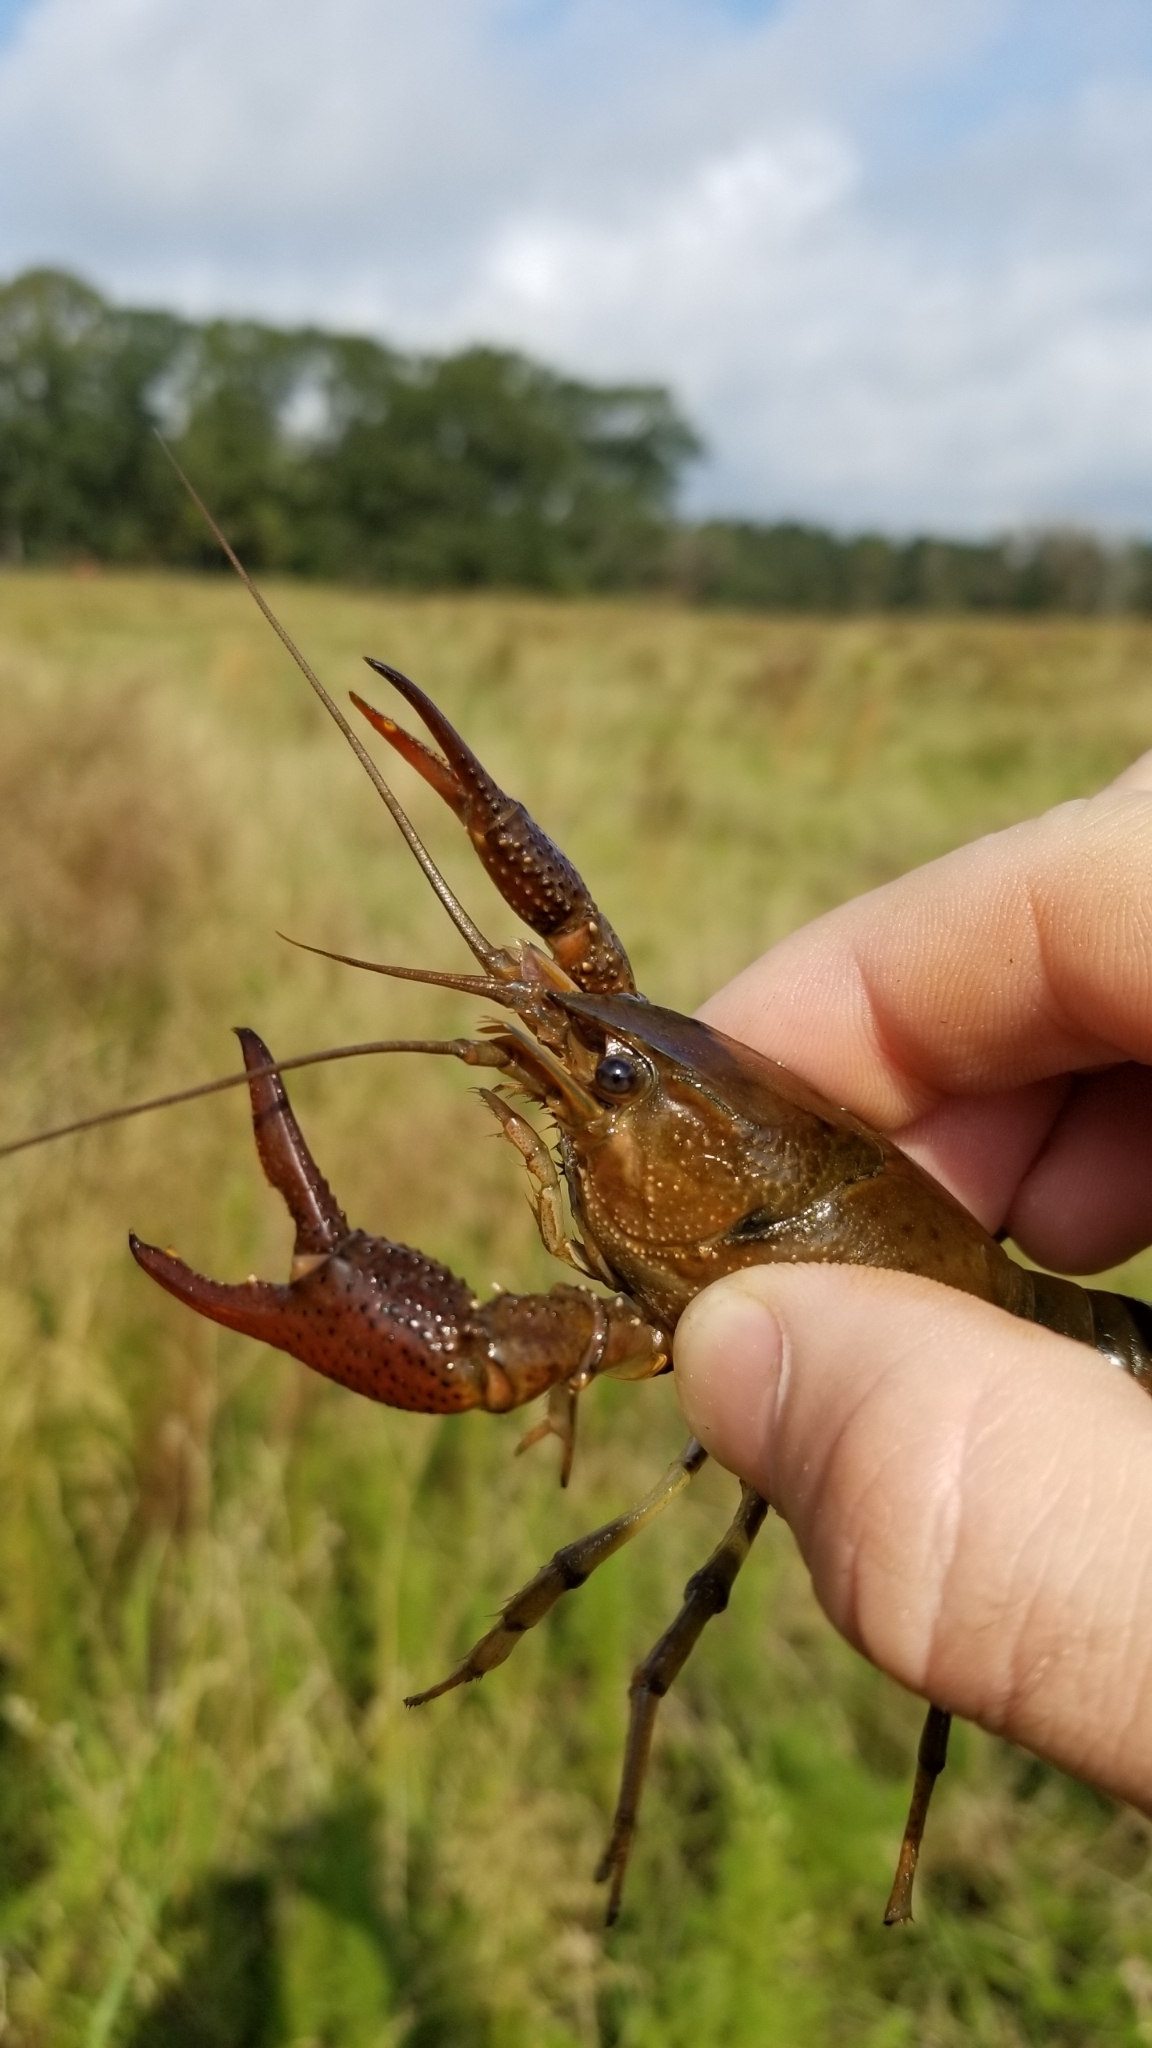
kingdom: Animalia
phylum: Arthropoda
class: Malacostraca
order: Decapoda
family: Cambaridae
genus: Procambarus
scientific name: Procambarus acutus
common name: White river crayfish
